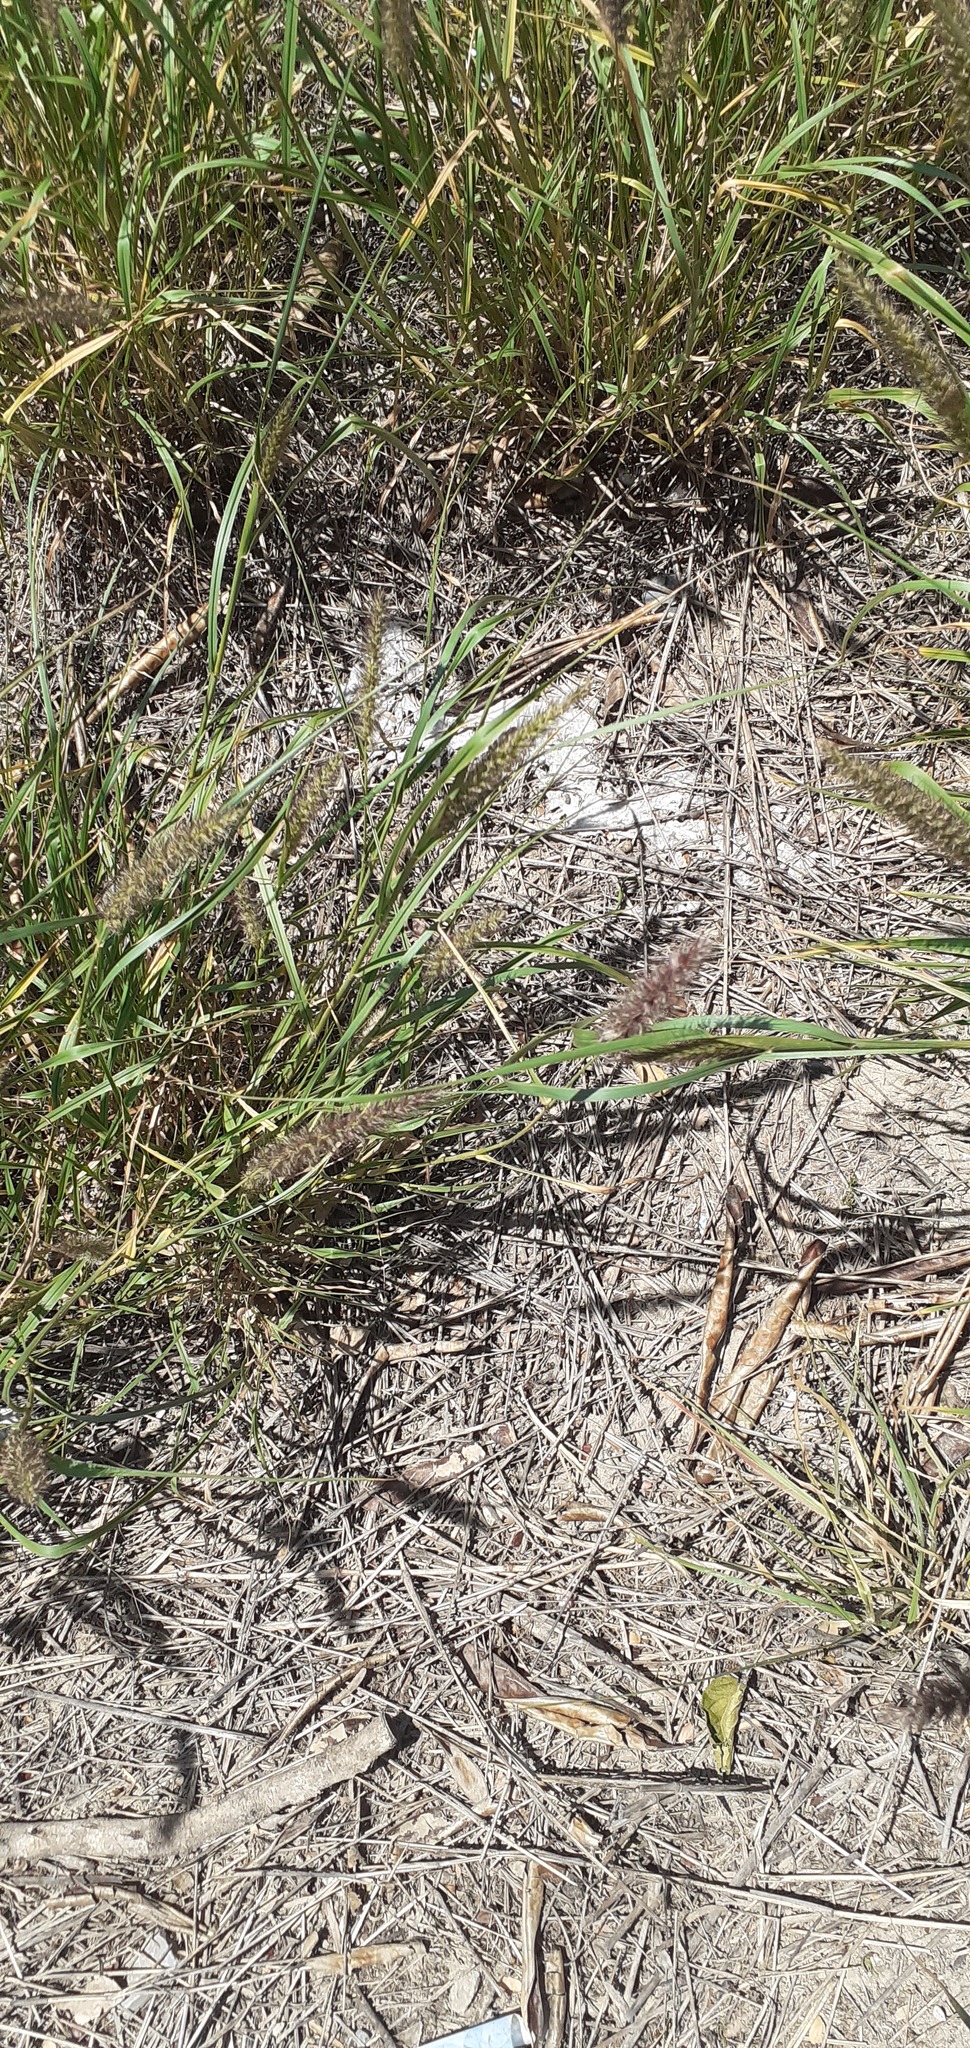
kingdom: Plantae
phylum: Tracheophyta
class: Liliopsida
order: Poales
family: Poaceae
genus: Cenchrus
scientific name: Cenchrus ciliaris
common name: Buffelgrass
